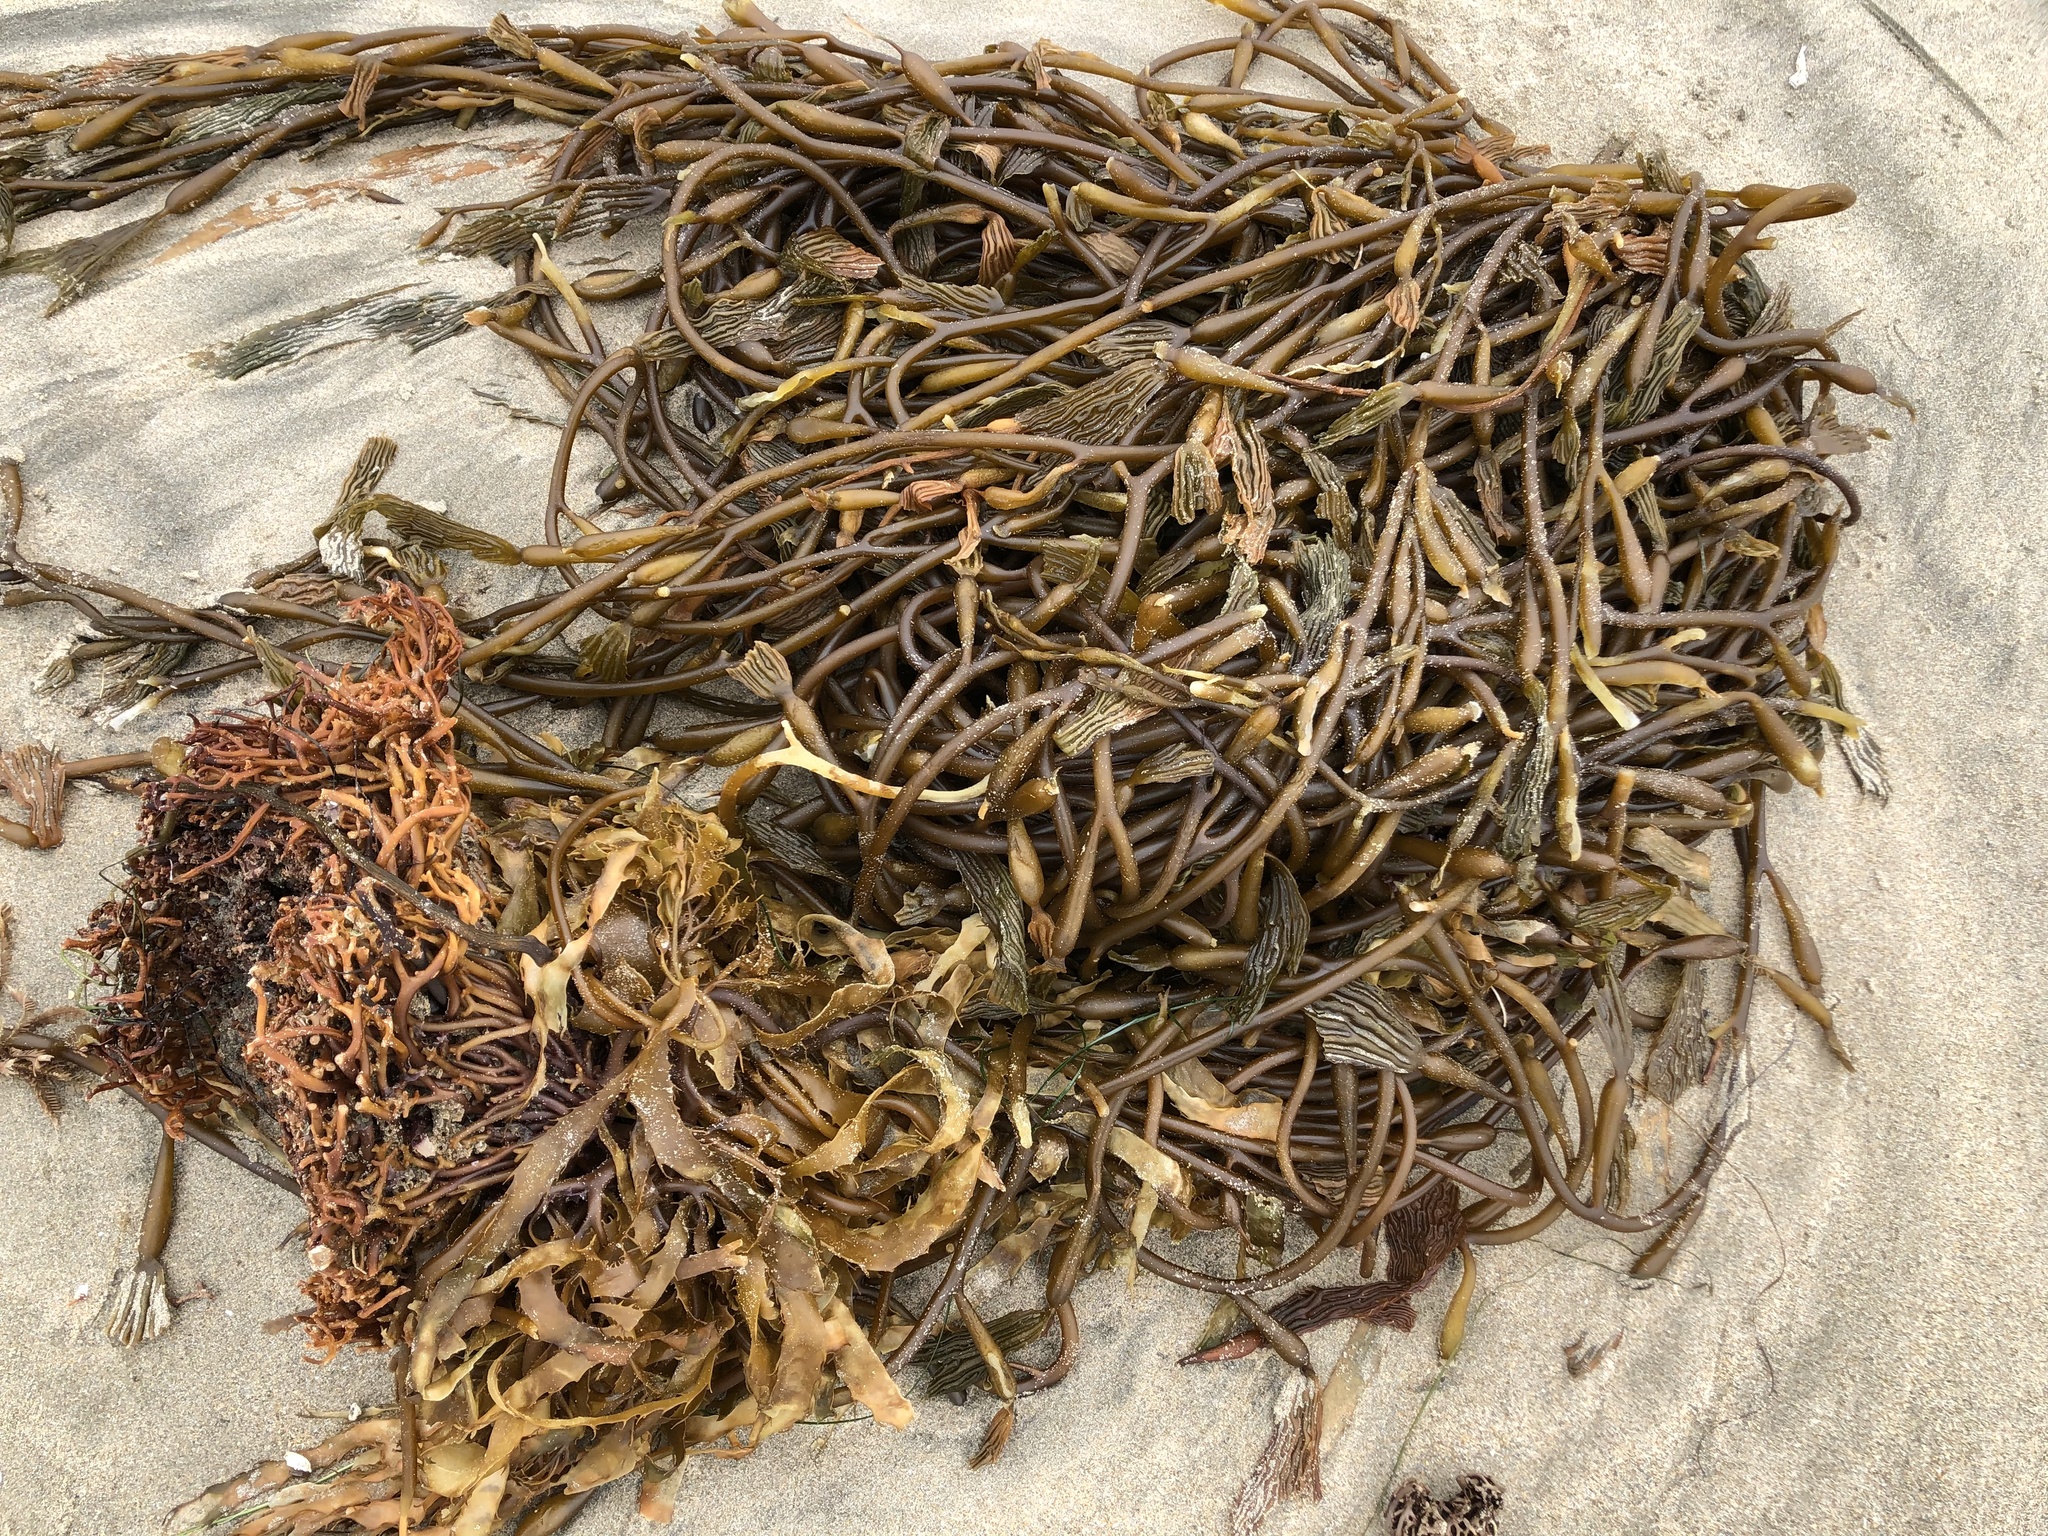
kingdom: Chromista
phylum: Ochrophyta
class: Phaeophyceae
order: Laminariales
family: Laminariaceae
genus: Macrocystis
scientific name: Macrocystis pyrifera
